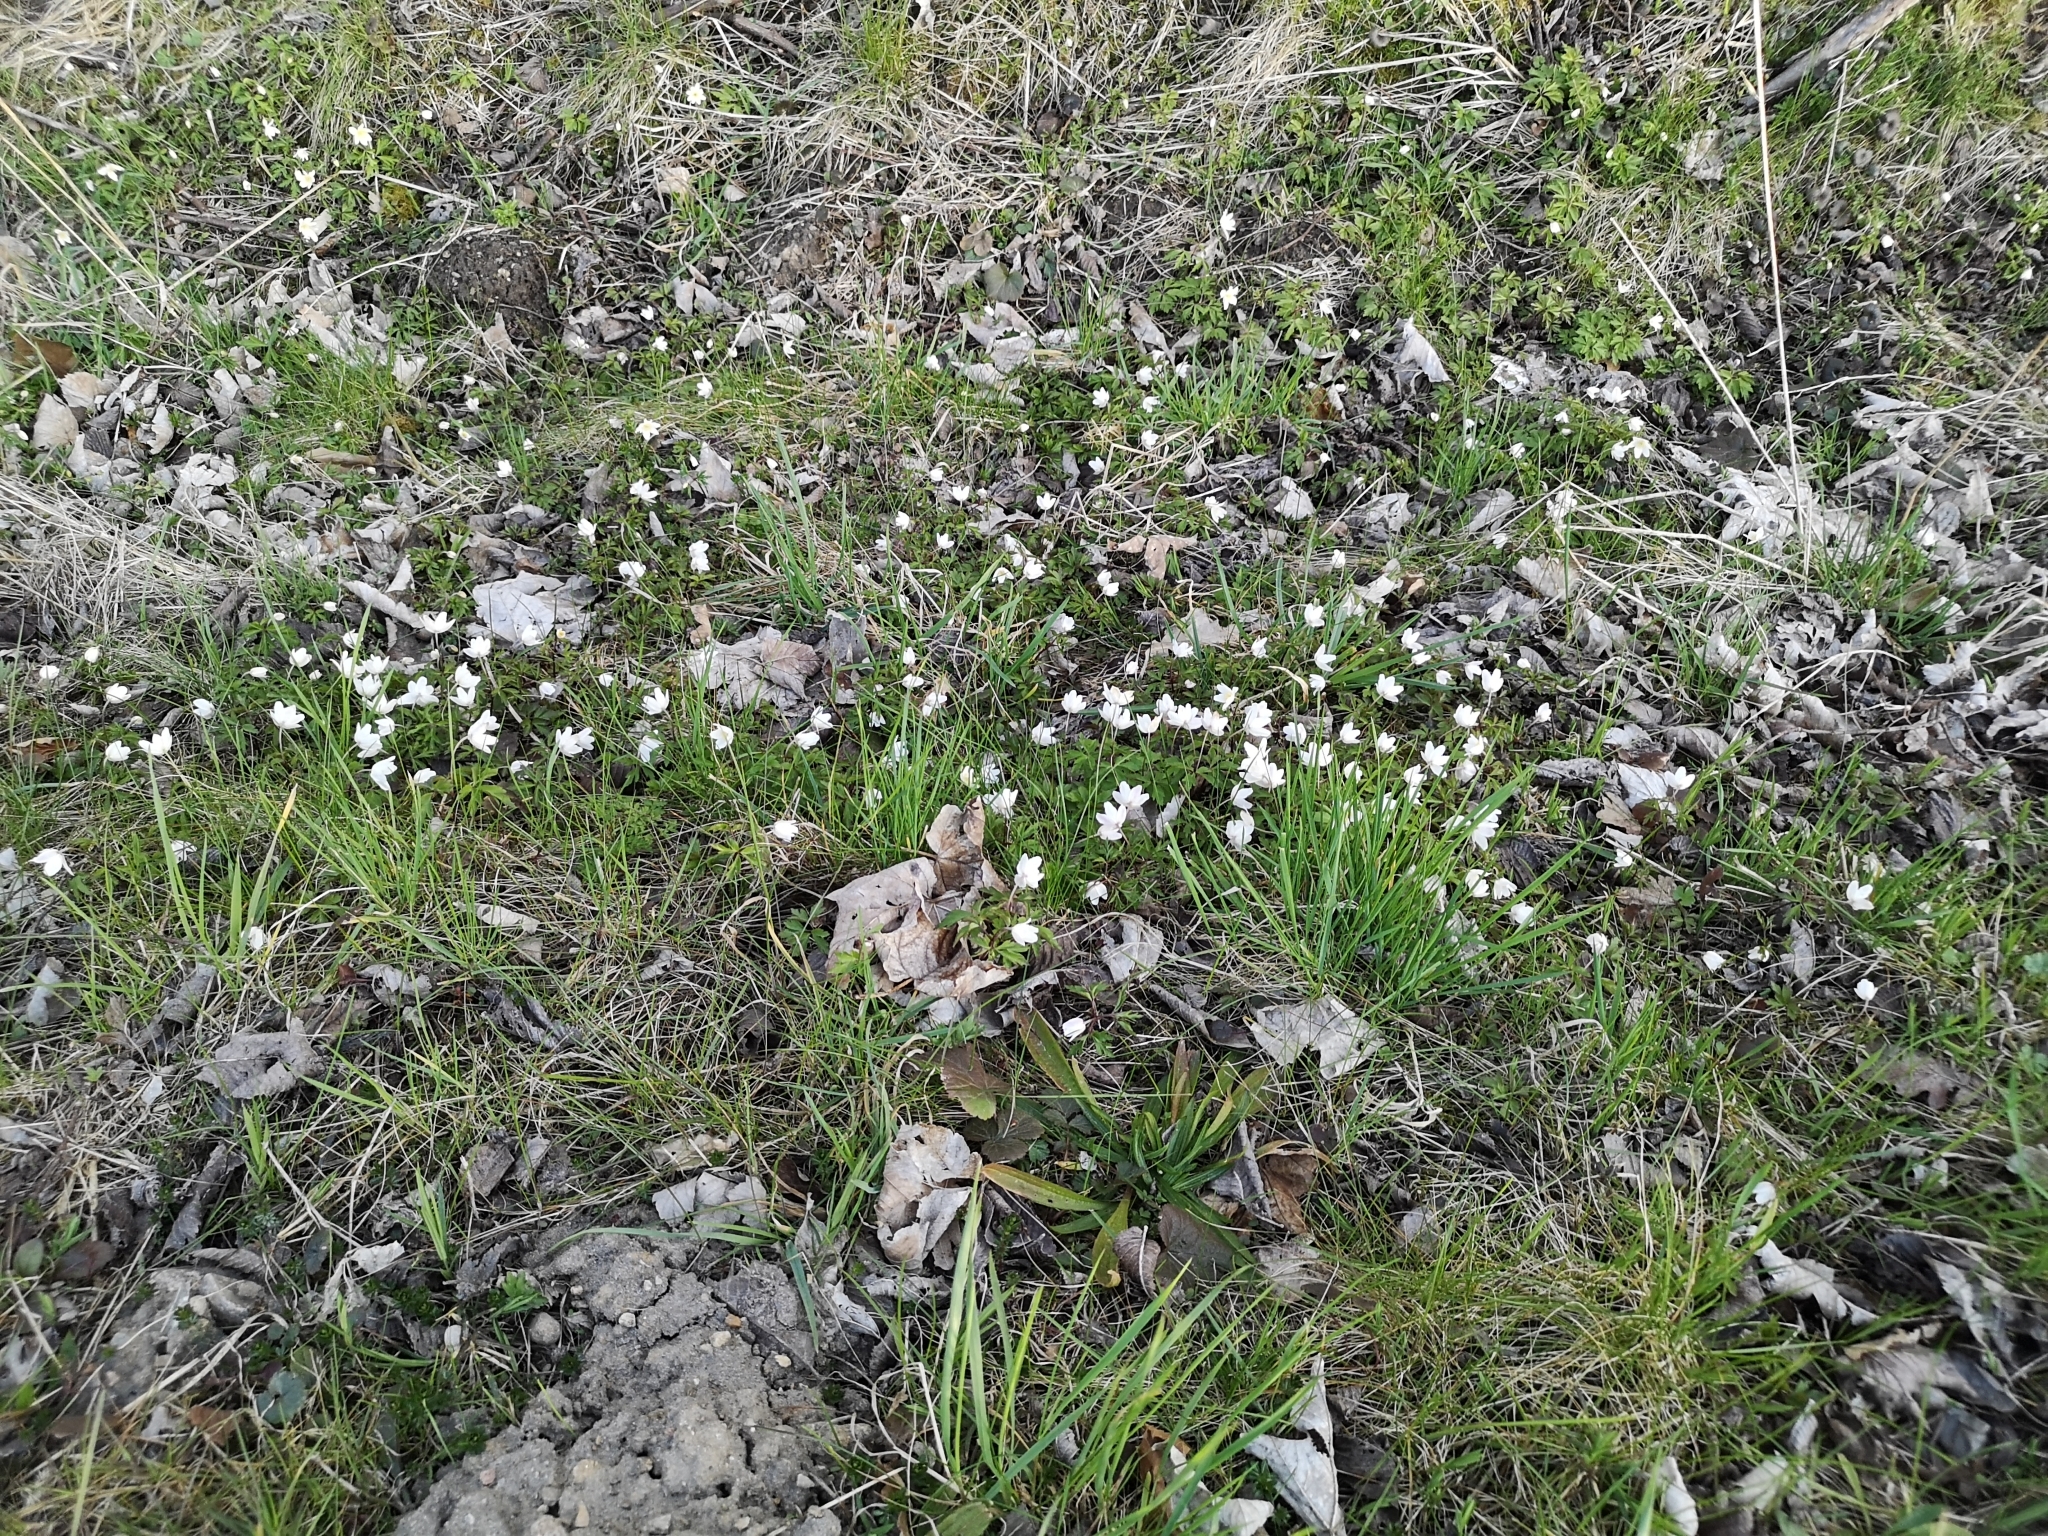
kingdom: Plantae
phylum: Tracheophyta
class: Magnoliopsida
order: Ranunculales
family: Ranunculaceae
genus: Anemone
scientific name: Anemone nemorosa
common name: Wood anemone
